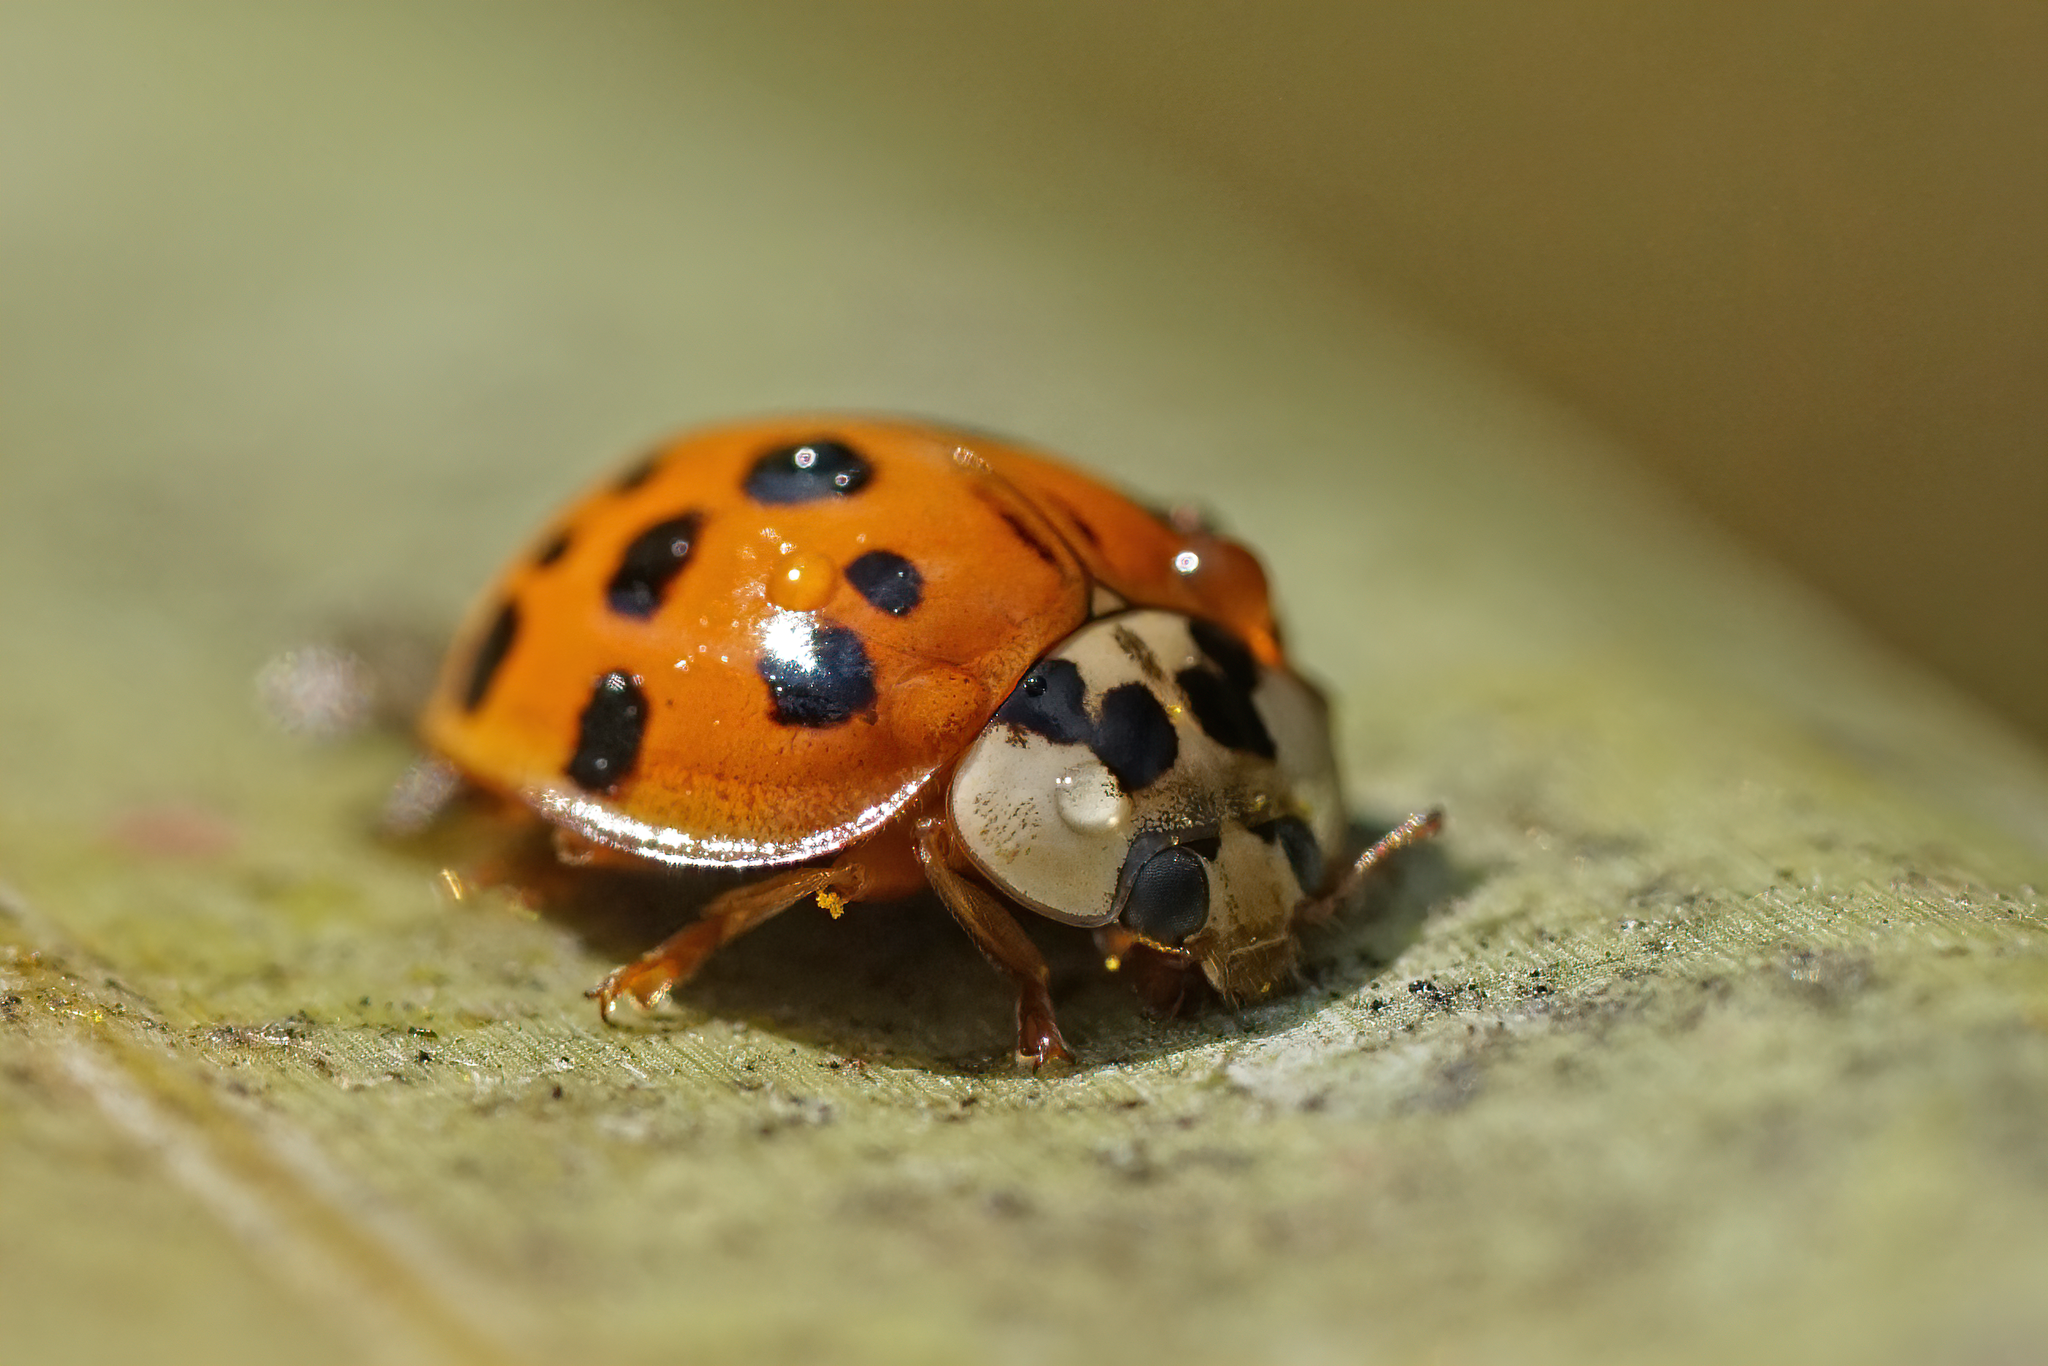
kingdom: Animalia
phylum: Arthropoda
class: Insecta
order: Coleoptera
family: Coccinellidae
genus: Harmonia
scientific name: Harmonia axyridis
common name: Harlequin ladybird
